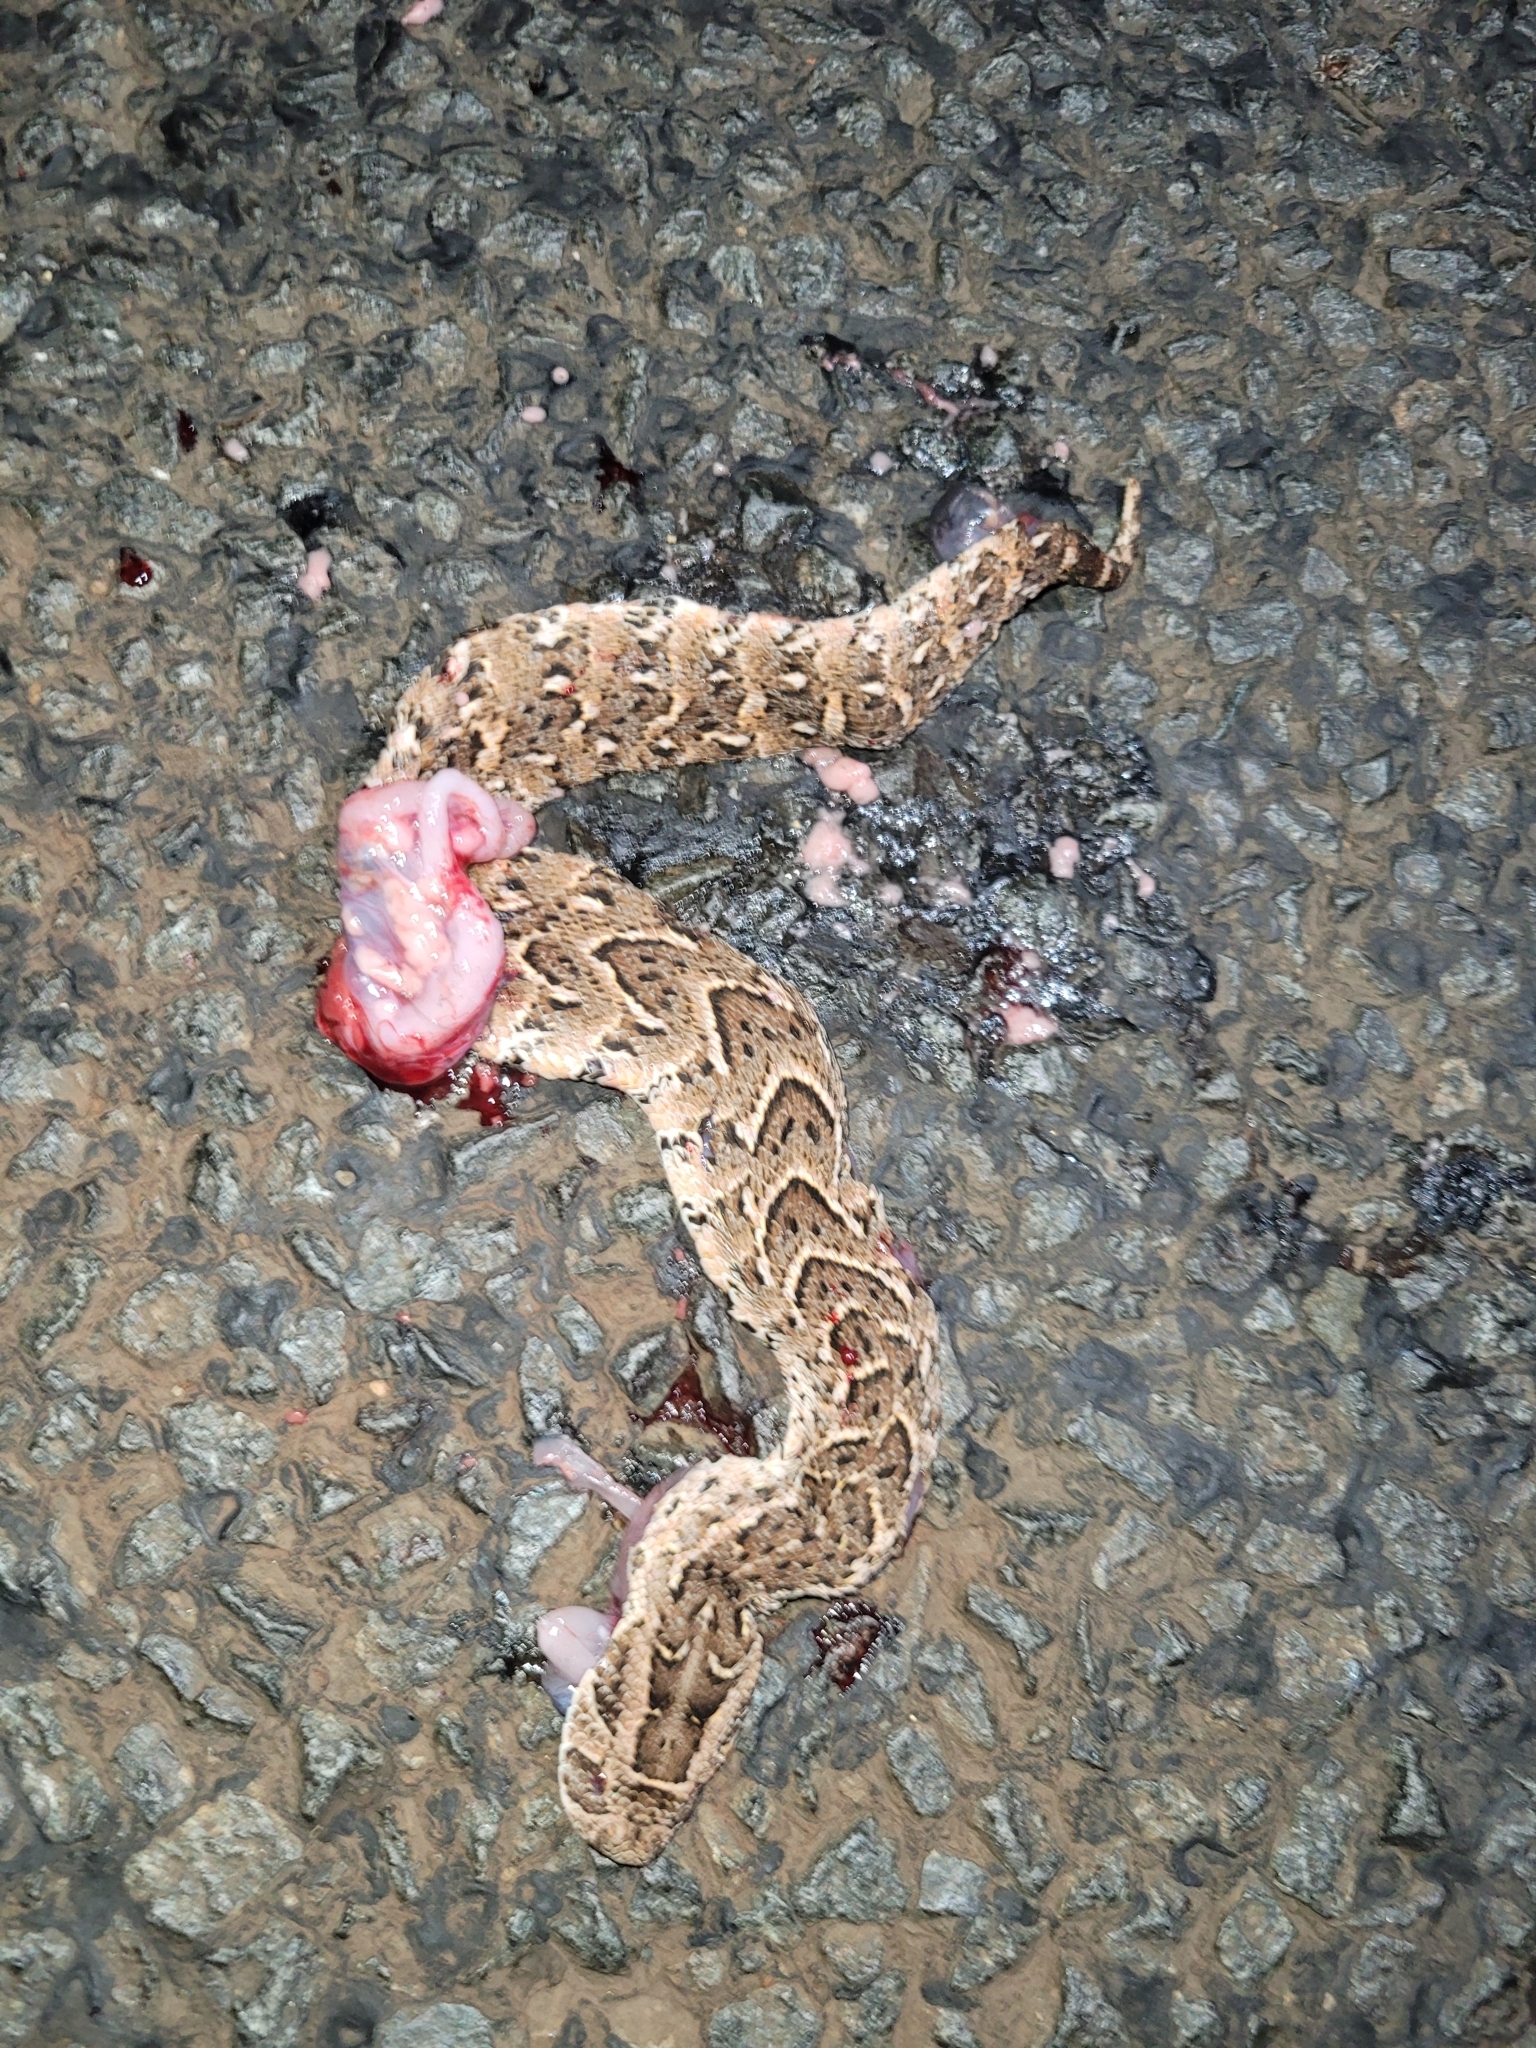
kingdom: Animalia
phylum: Chordata
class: Squamata
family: Viperidae
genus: Bitis
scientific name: Bitis arietans
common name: Puff adder
